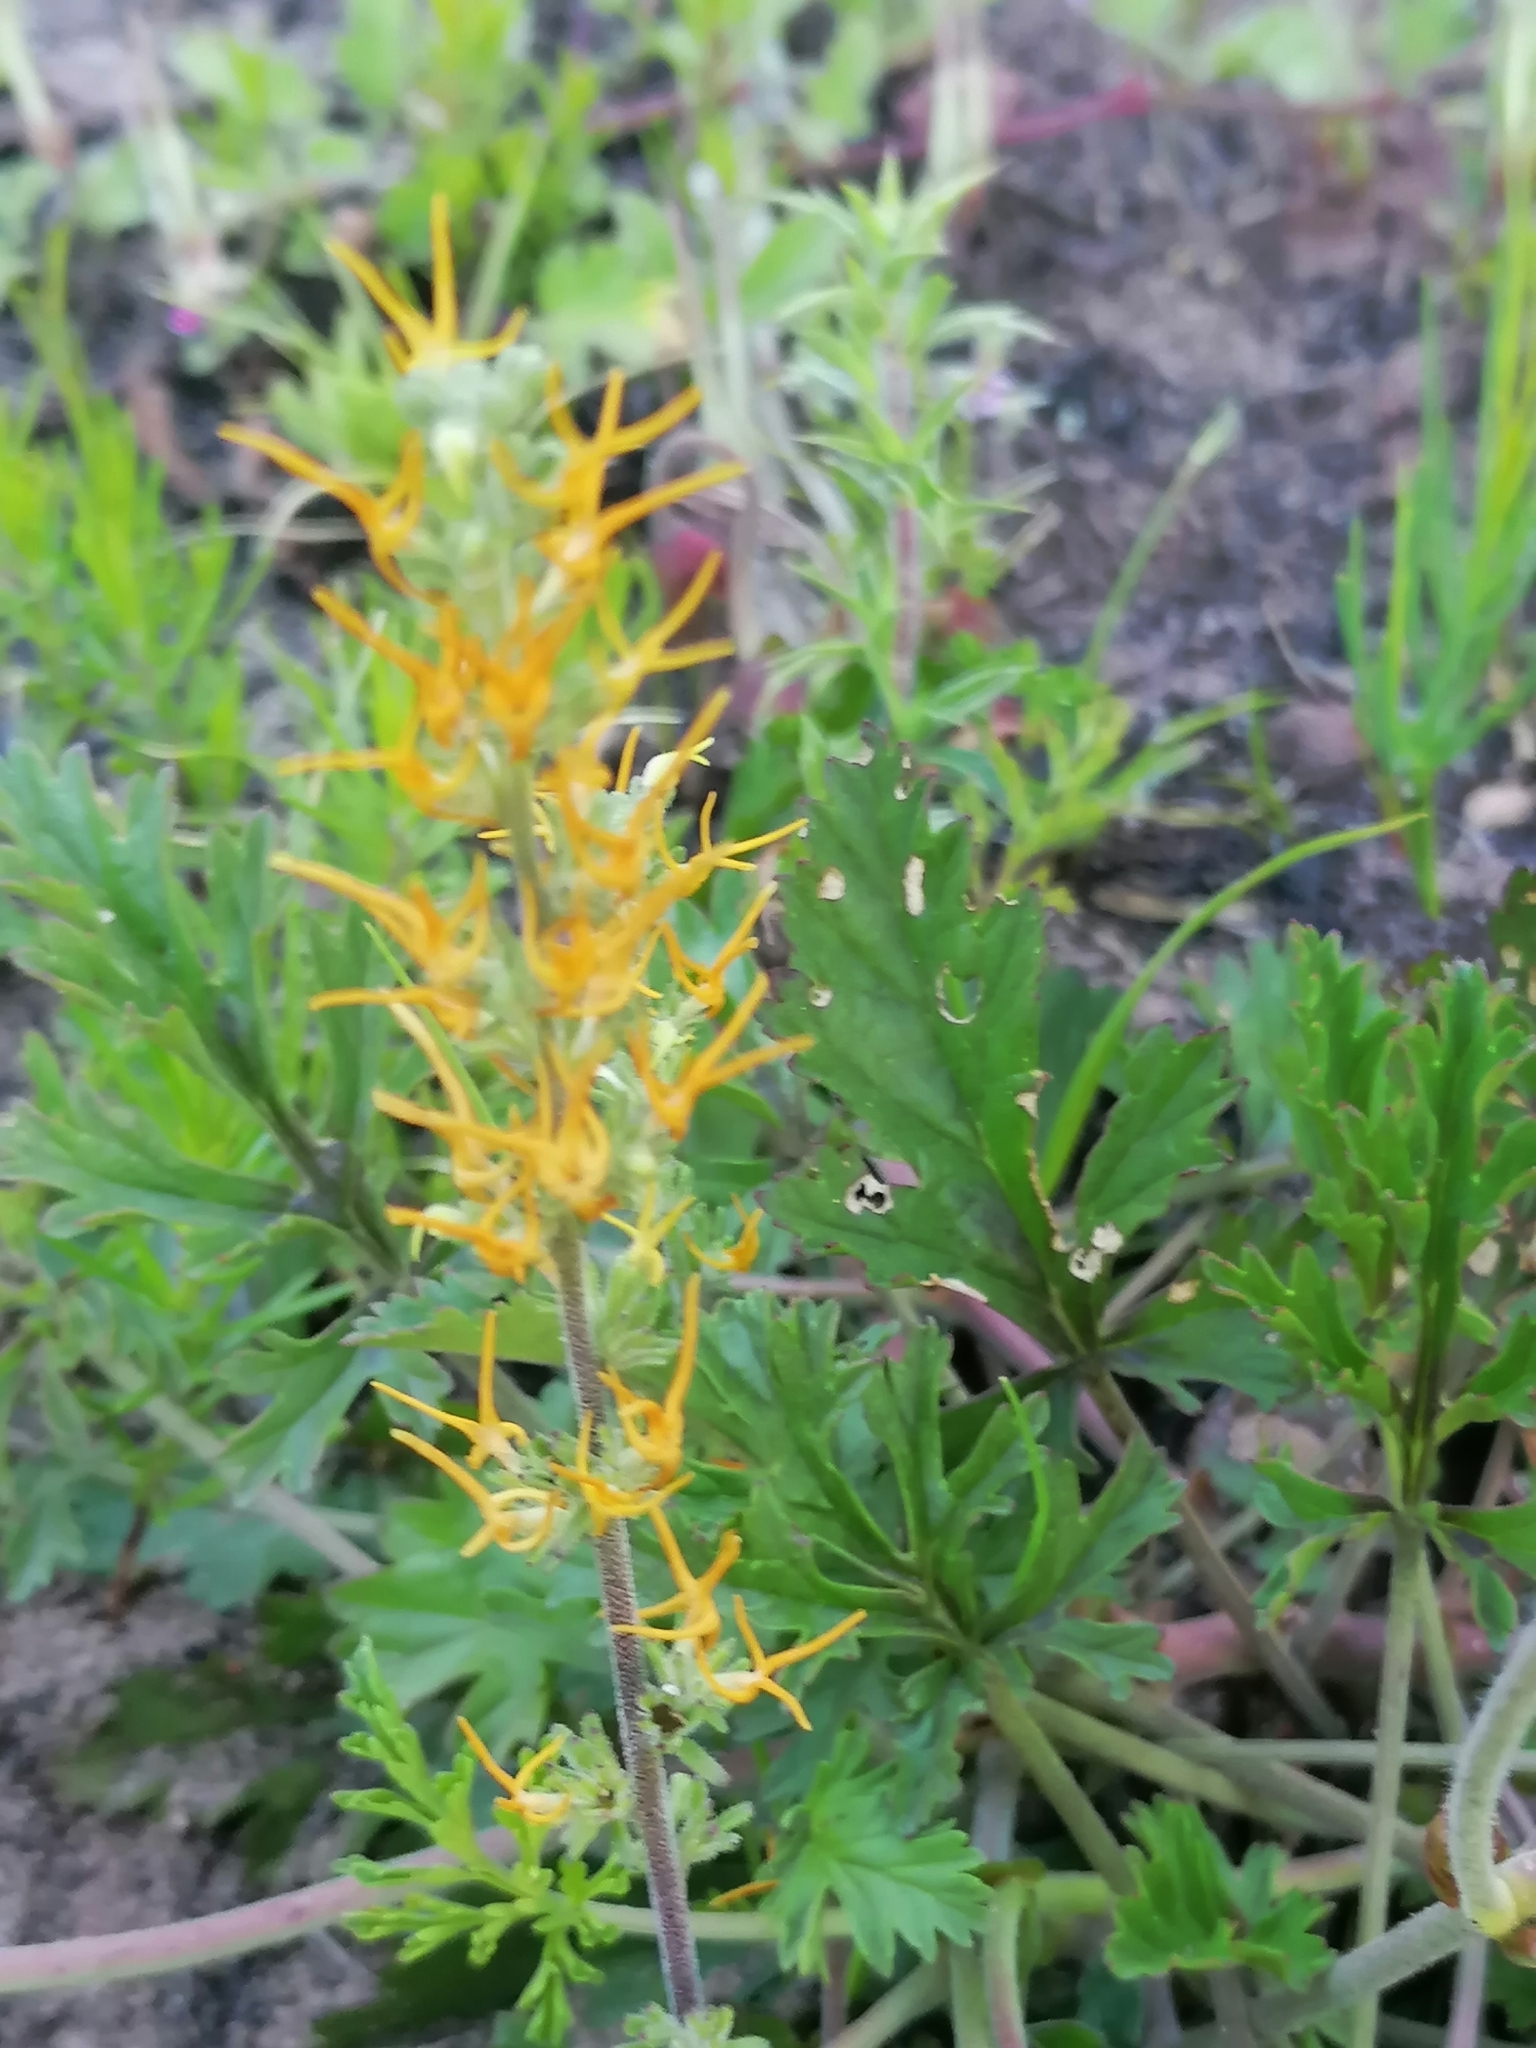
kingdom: Plantae
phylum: Tracheophyta
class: Magnoliopsida
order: Lamiales
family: Scrophulariaceae
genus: Manulea
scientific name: Manulea cheiranthus
